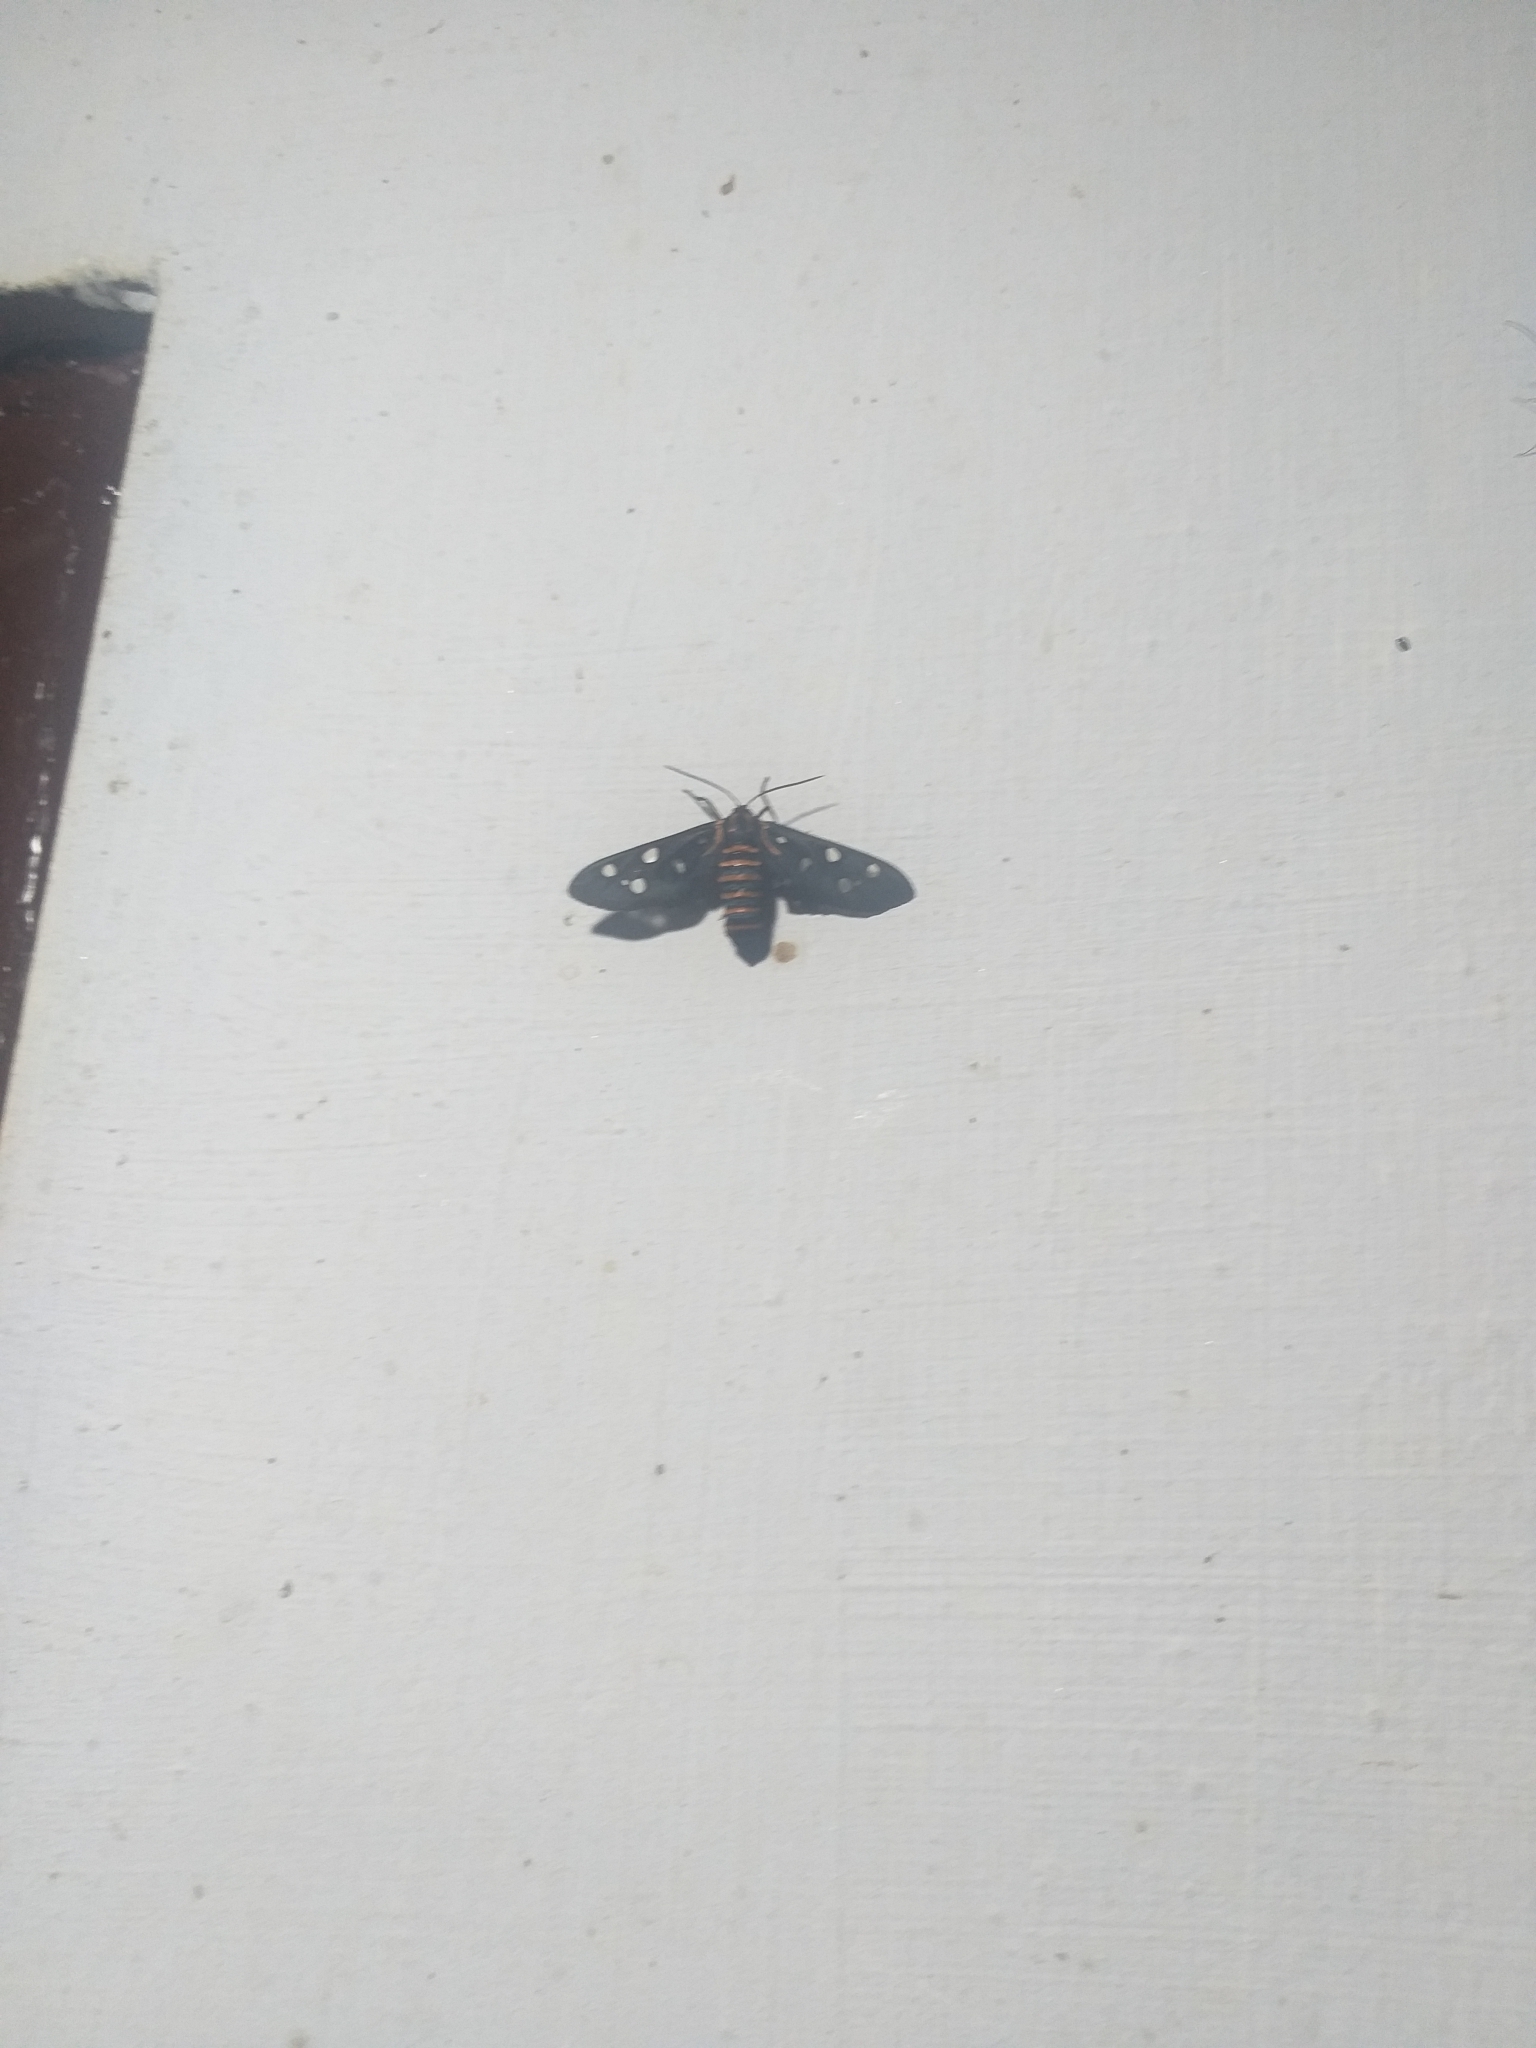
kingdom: Animalia
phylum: Arthropoda
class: Insecta
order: Lepidoptera
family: Erebidae
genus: Amata
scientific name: Amata passalis
